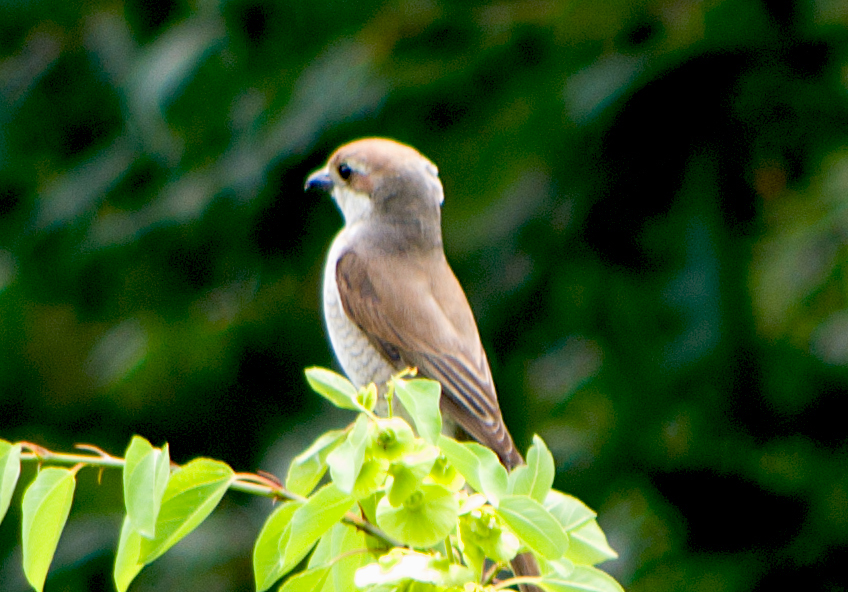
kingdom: Animalia
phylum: Chordata
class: Aves
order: Passeriformes
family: Laniidae
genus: Lanius
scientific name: Lanius collurio
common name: Red-backed shrike
